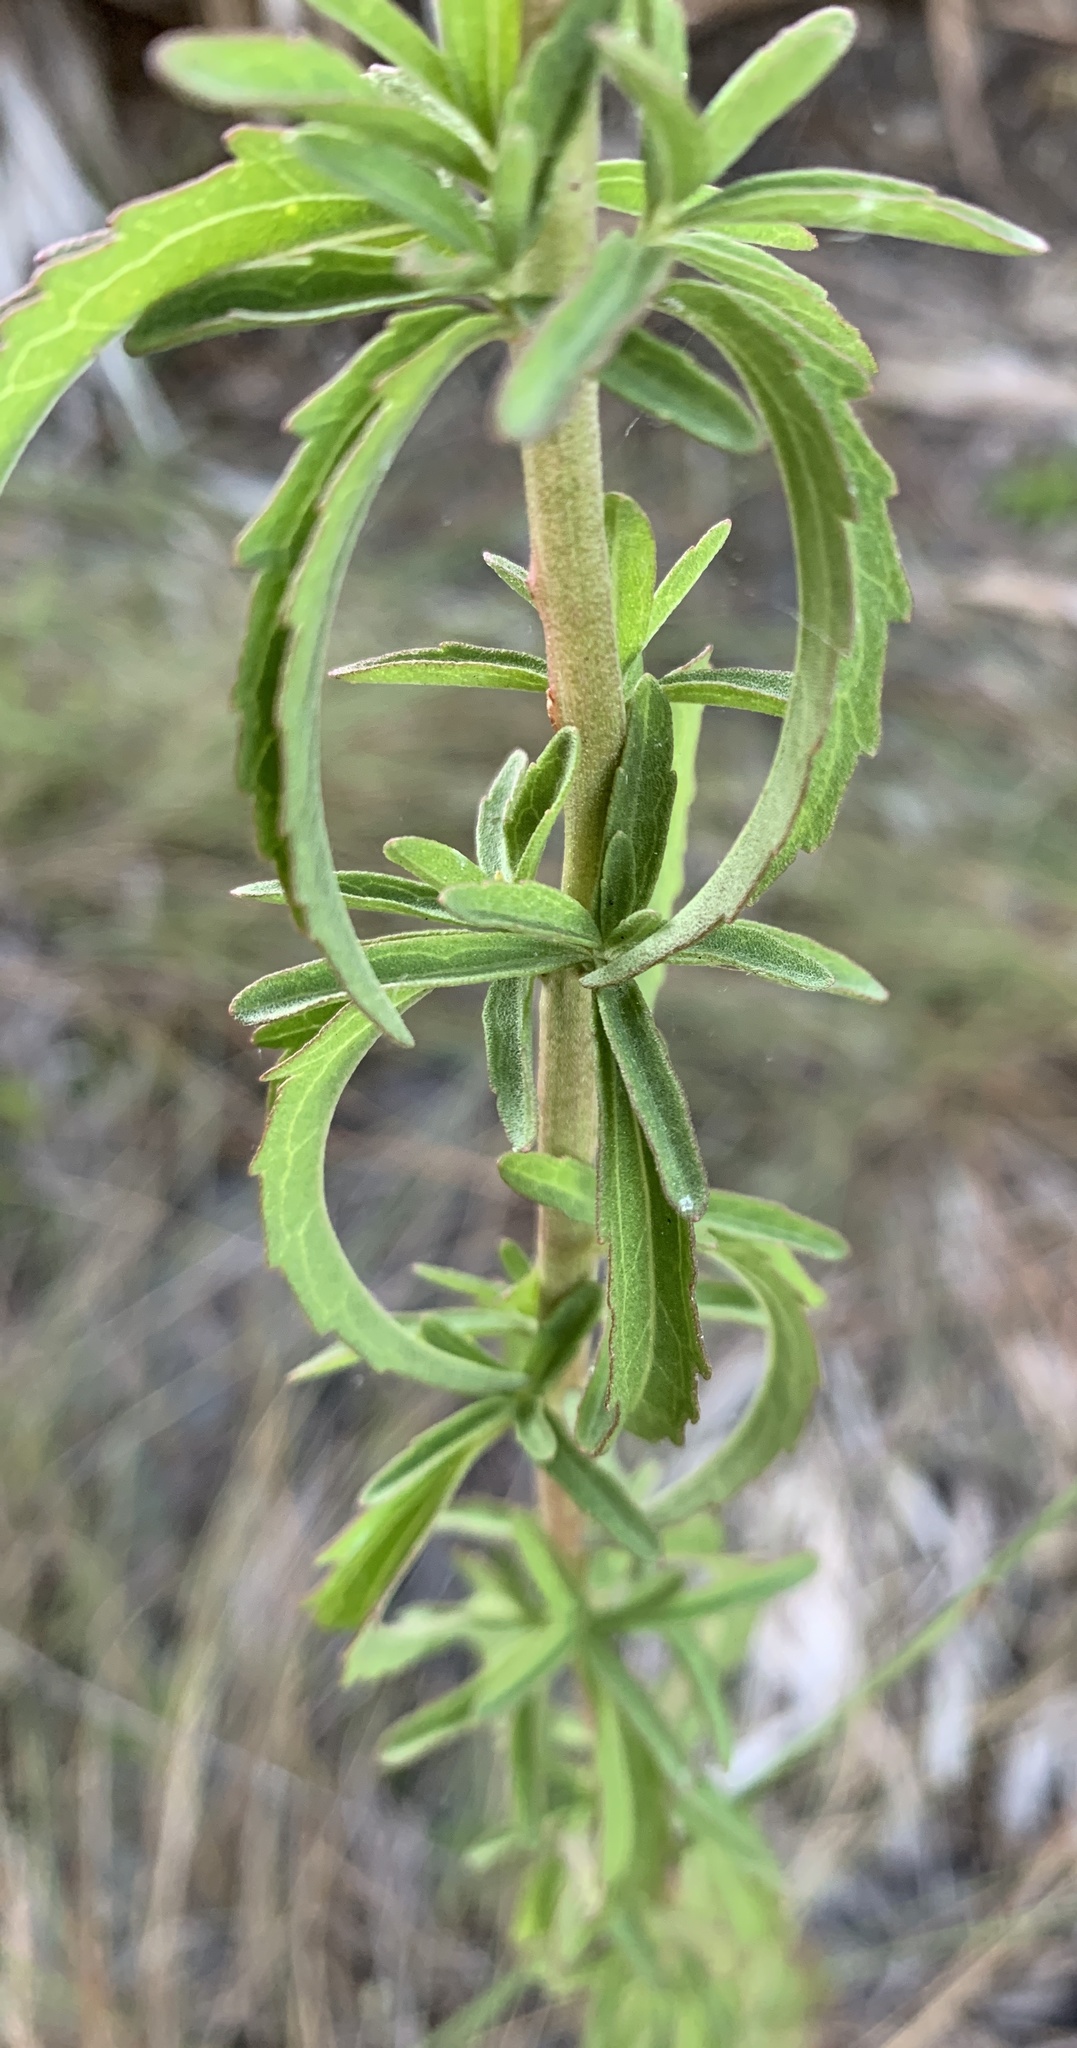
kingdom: Plantae
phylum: Tracheophyta
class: Magnoliopsida
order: Asterales
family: Asteraceae
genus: Eupatorium
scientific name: Eupatorium mohrii
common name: Mohr's thoroughwort
